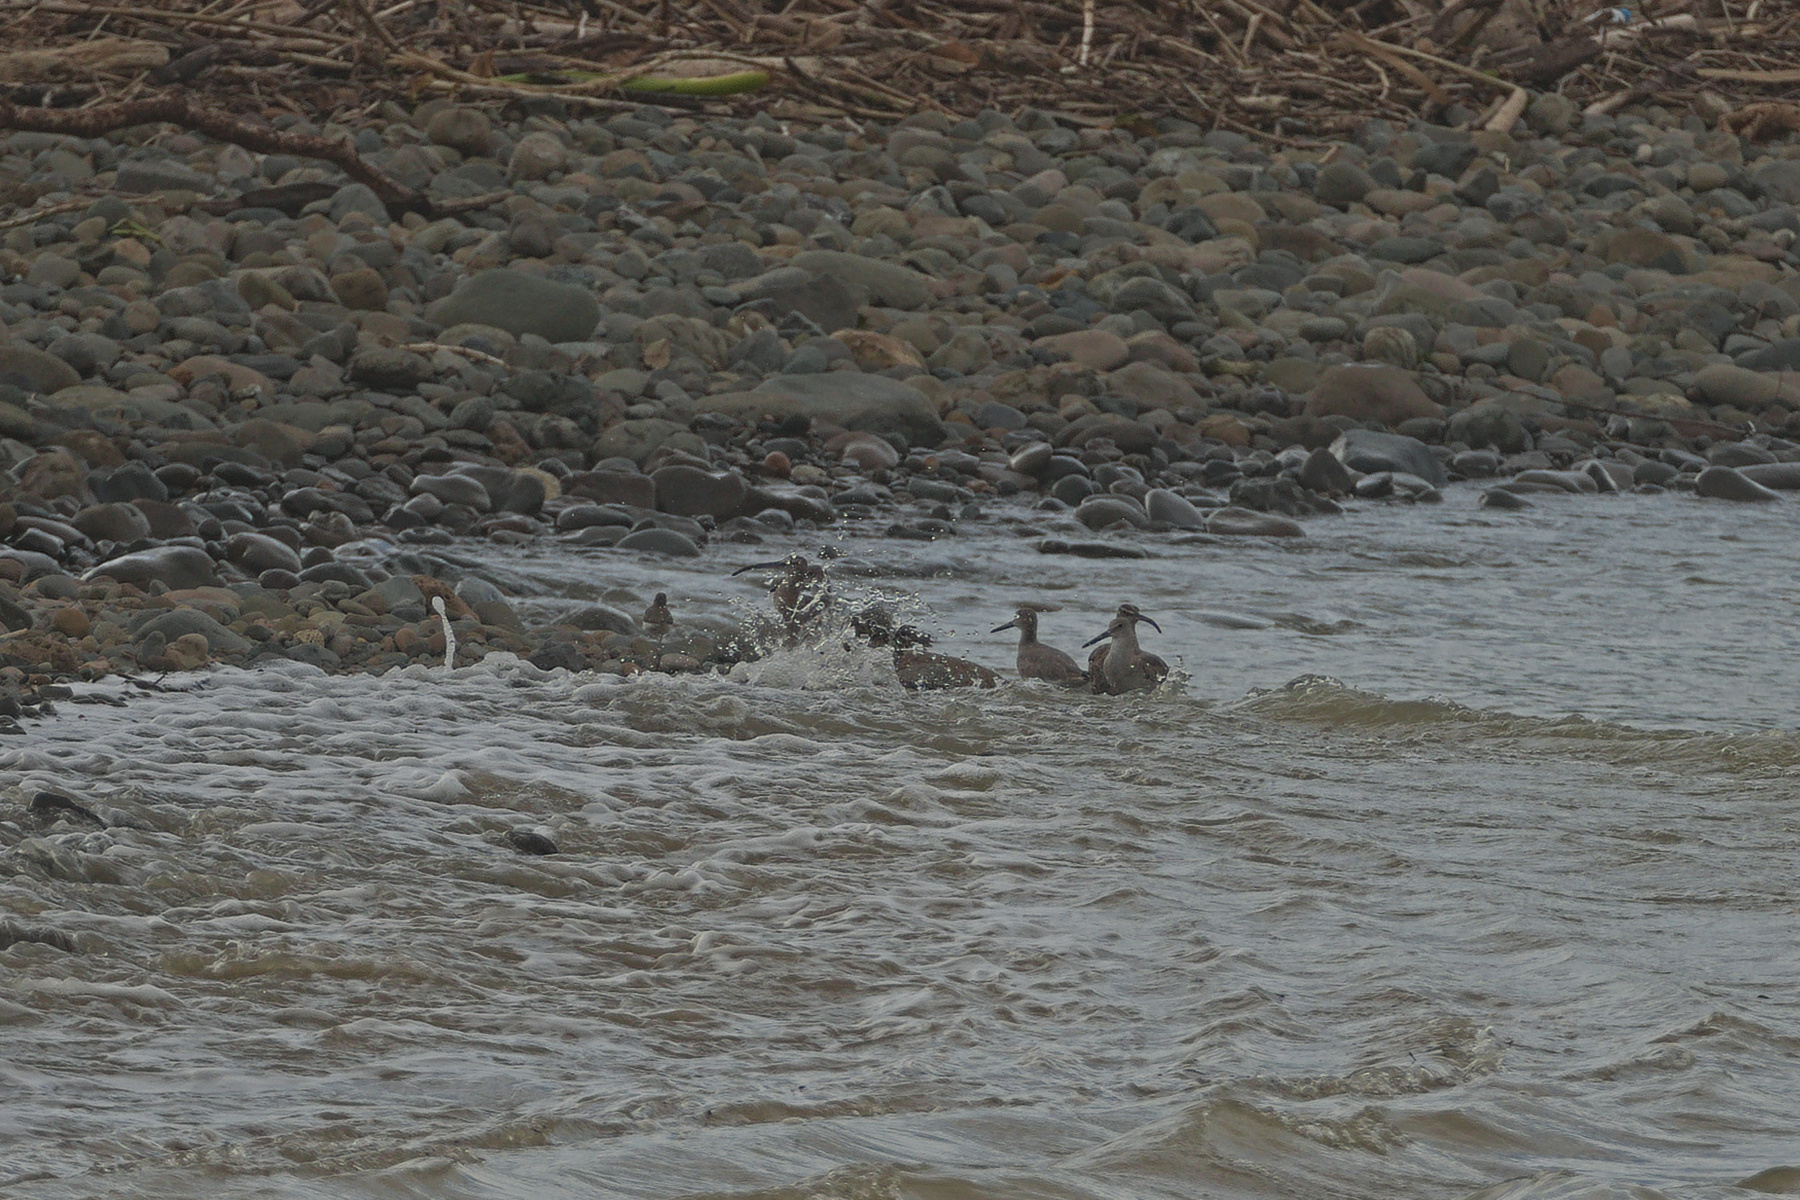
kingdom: Animalia
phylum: Chordata
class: Aves
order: Charadriiformes
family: Scolopacidae
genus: Tringa
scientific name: Tringa semipalmata
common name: Willet
